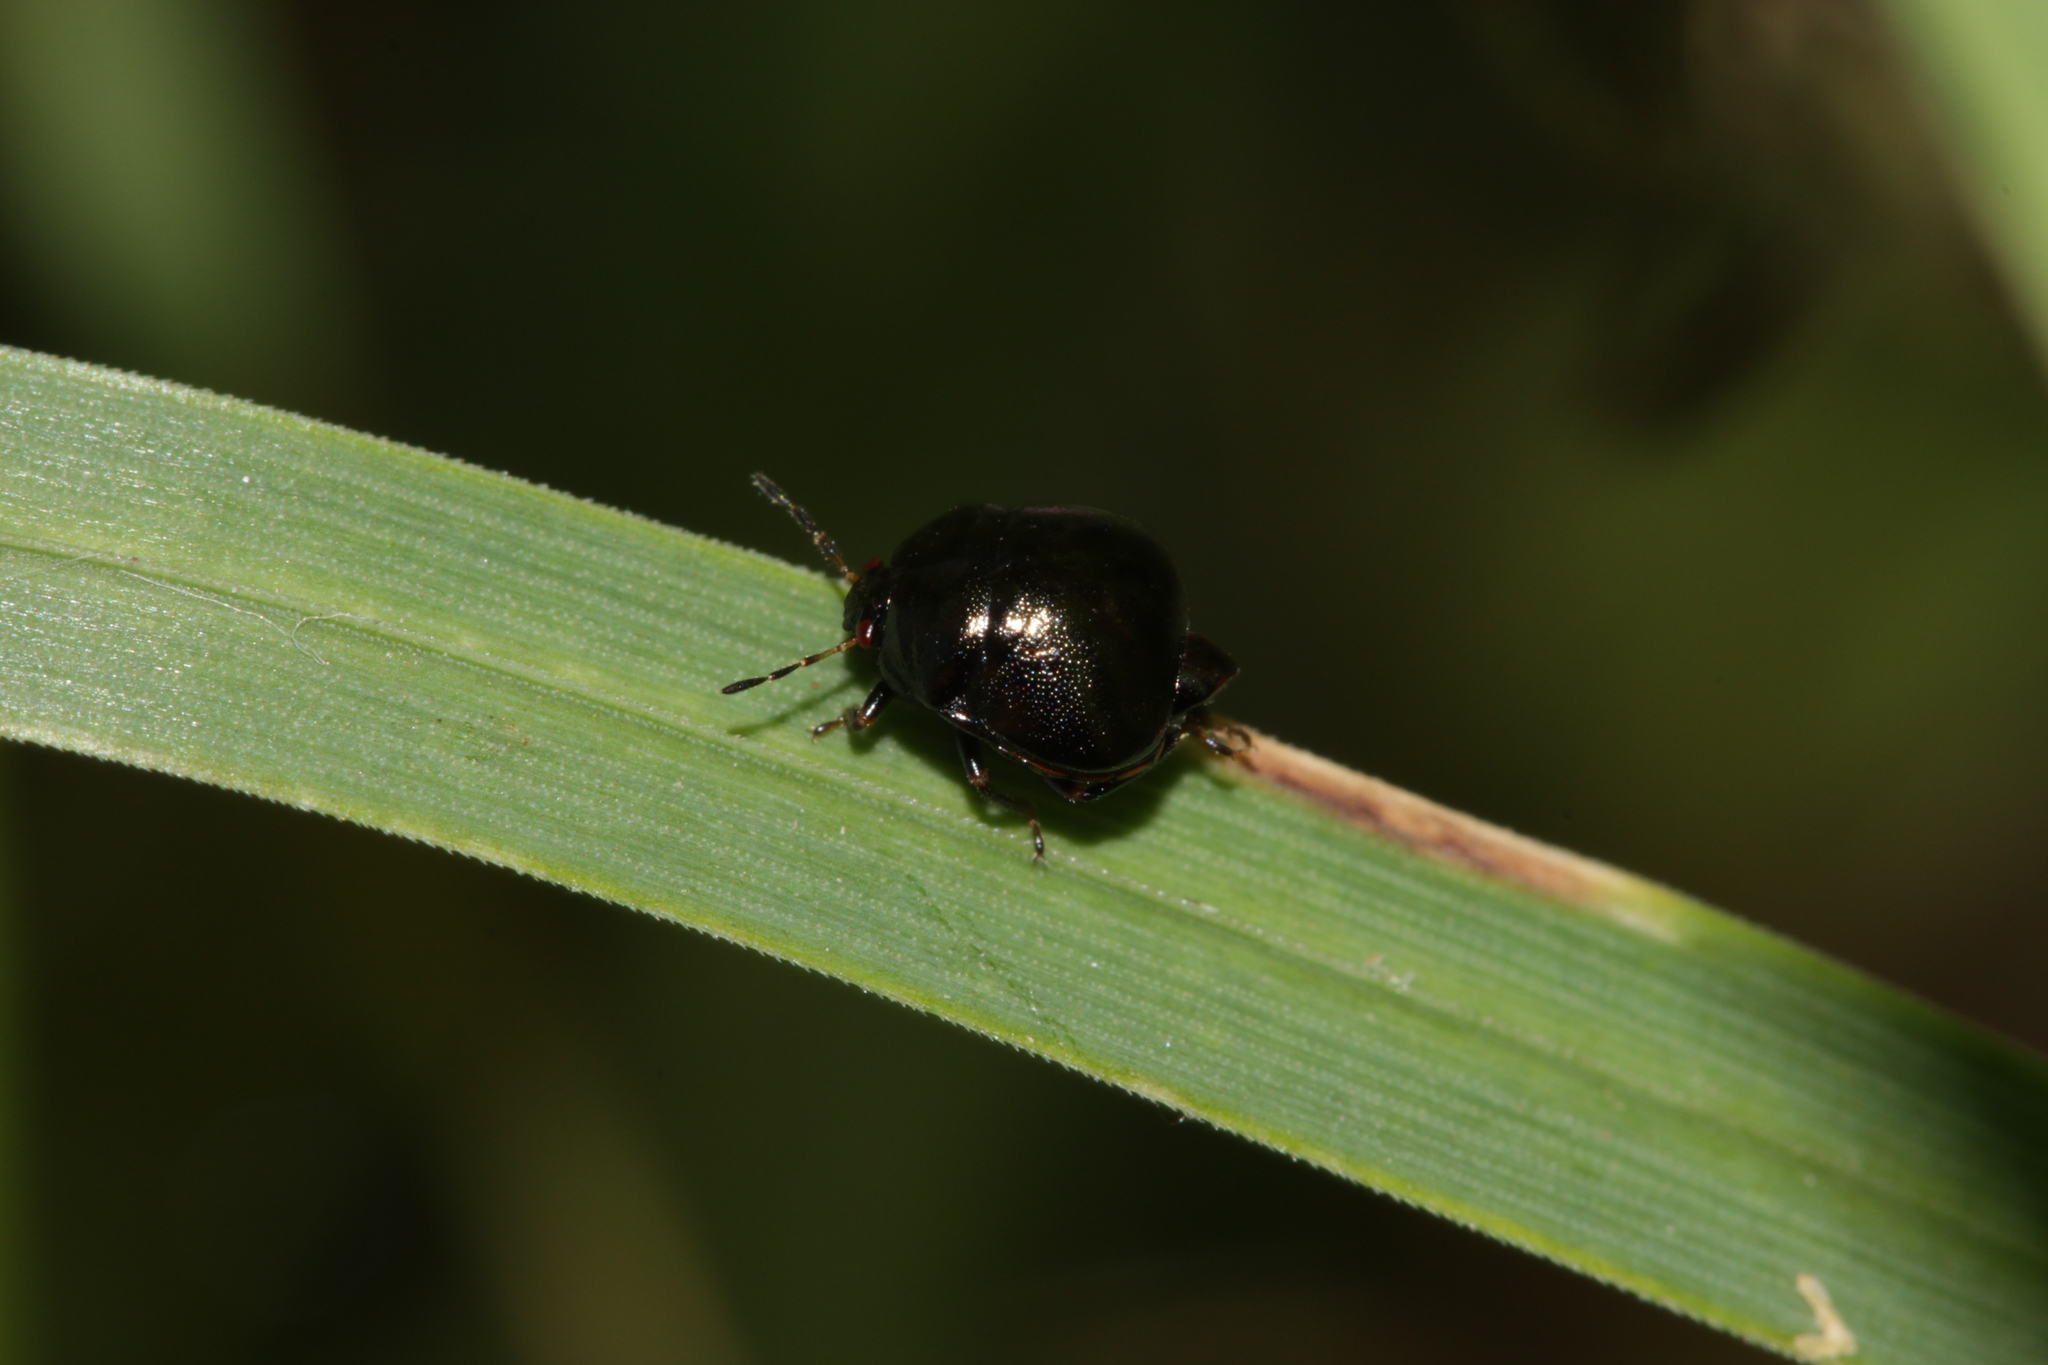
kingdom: Animalia
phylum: Arthropoda
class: Insecta
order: Hemiptera
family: Plataspidae
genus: Coptosoma
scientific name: Coptosoma scutellatum
